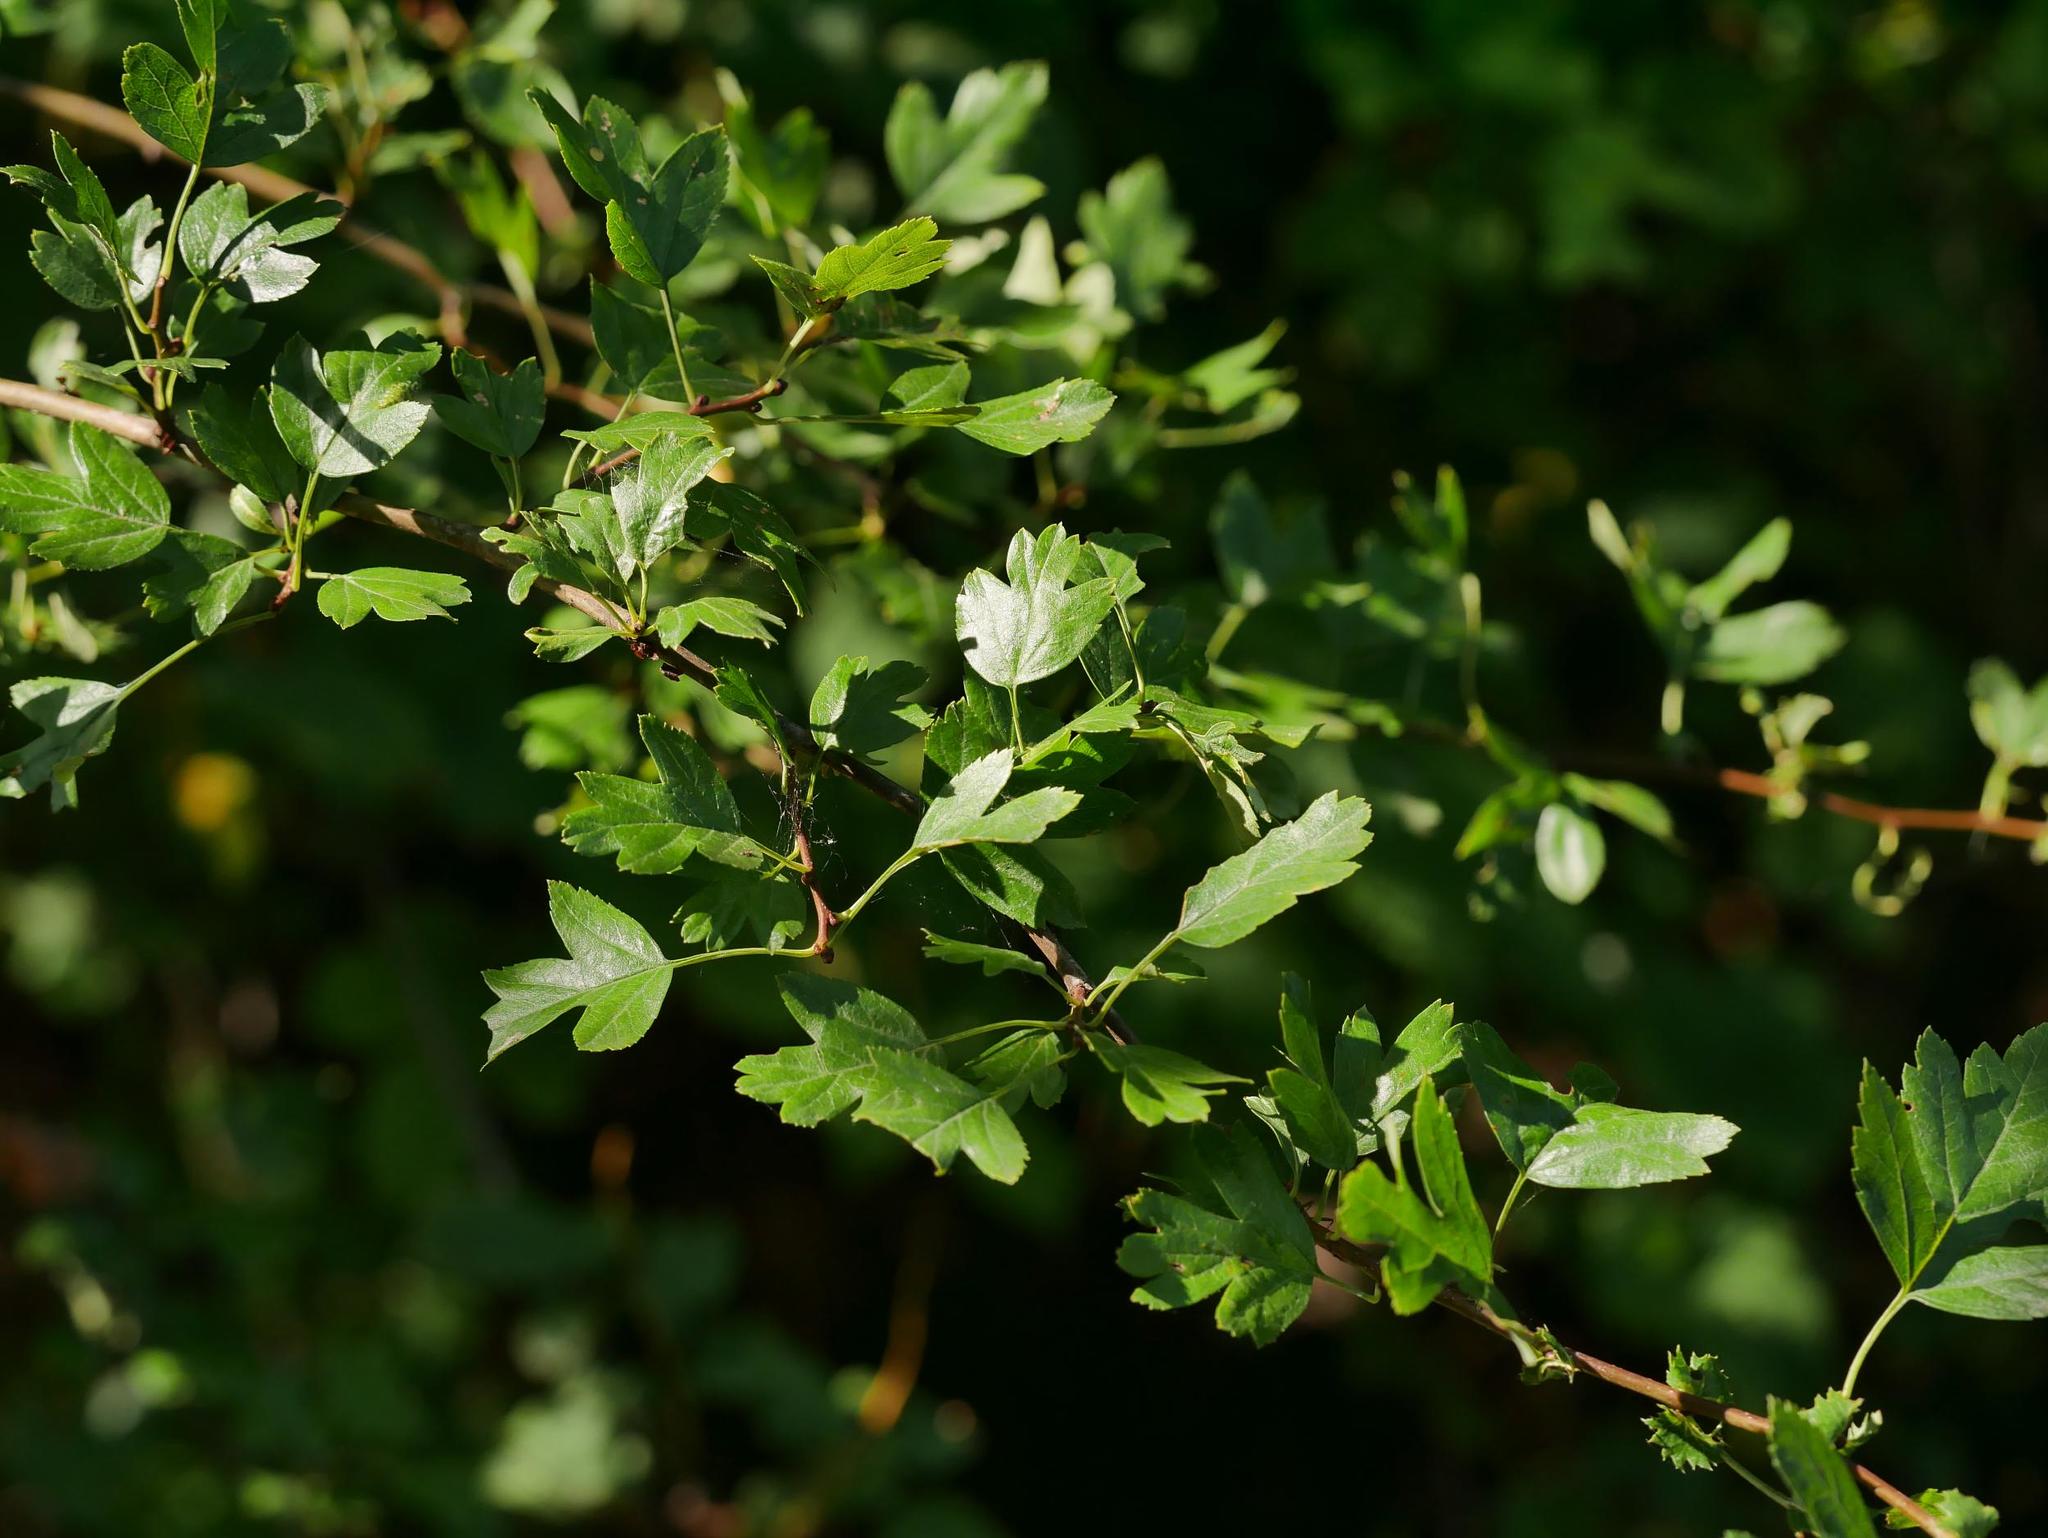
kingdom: Plantae
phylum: Tracheophyta
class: Magnoliopsida
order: Rosales
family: Rosaceae
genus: Crataegus
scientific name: Crataegus monogyna
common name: Hawthorn
